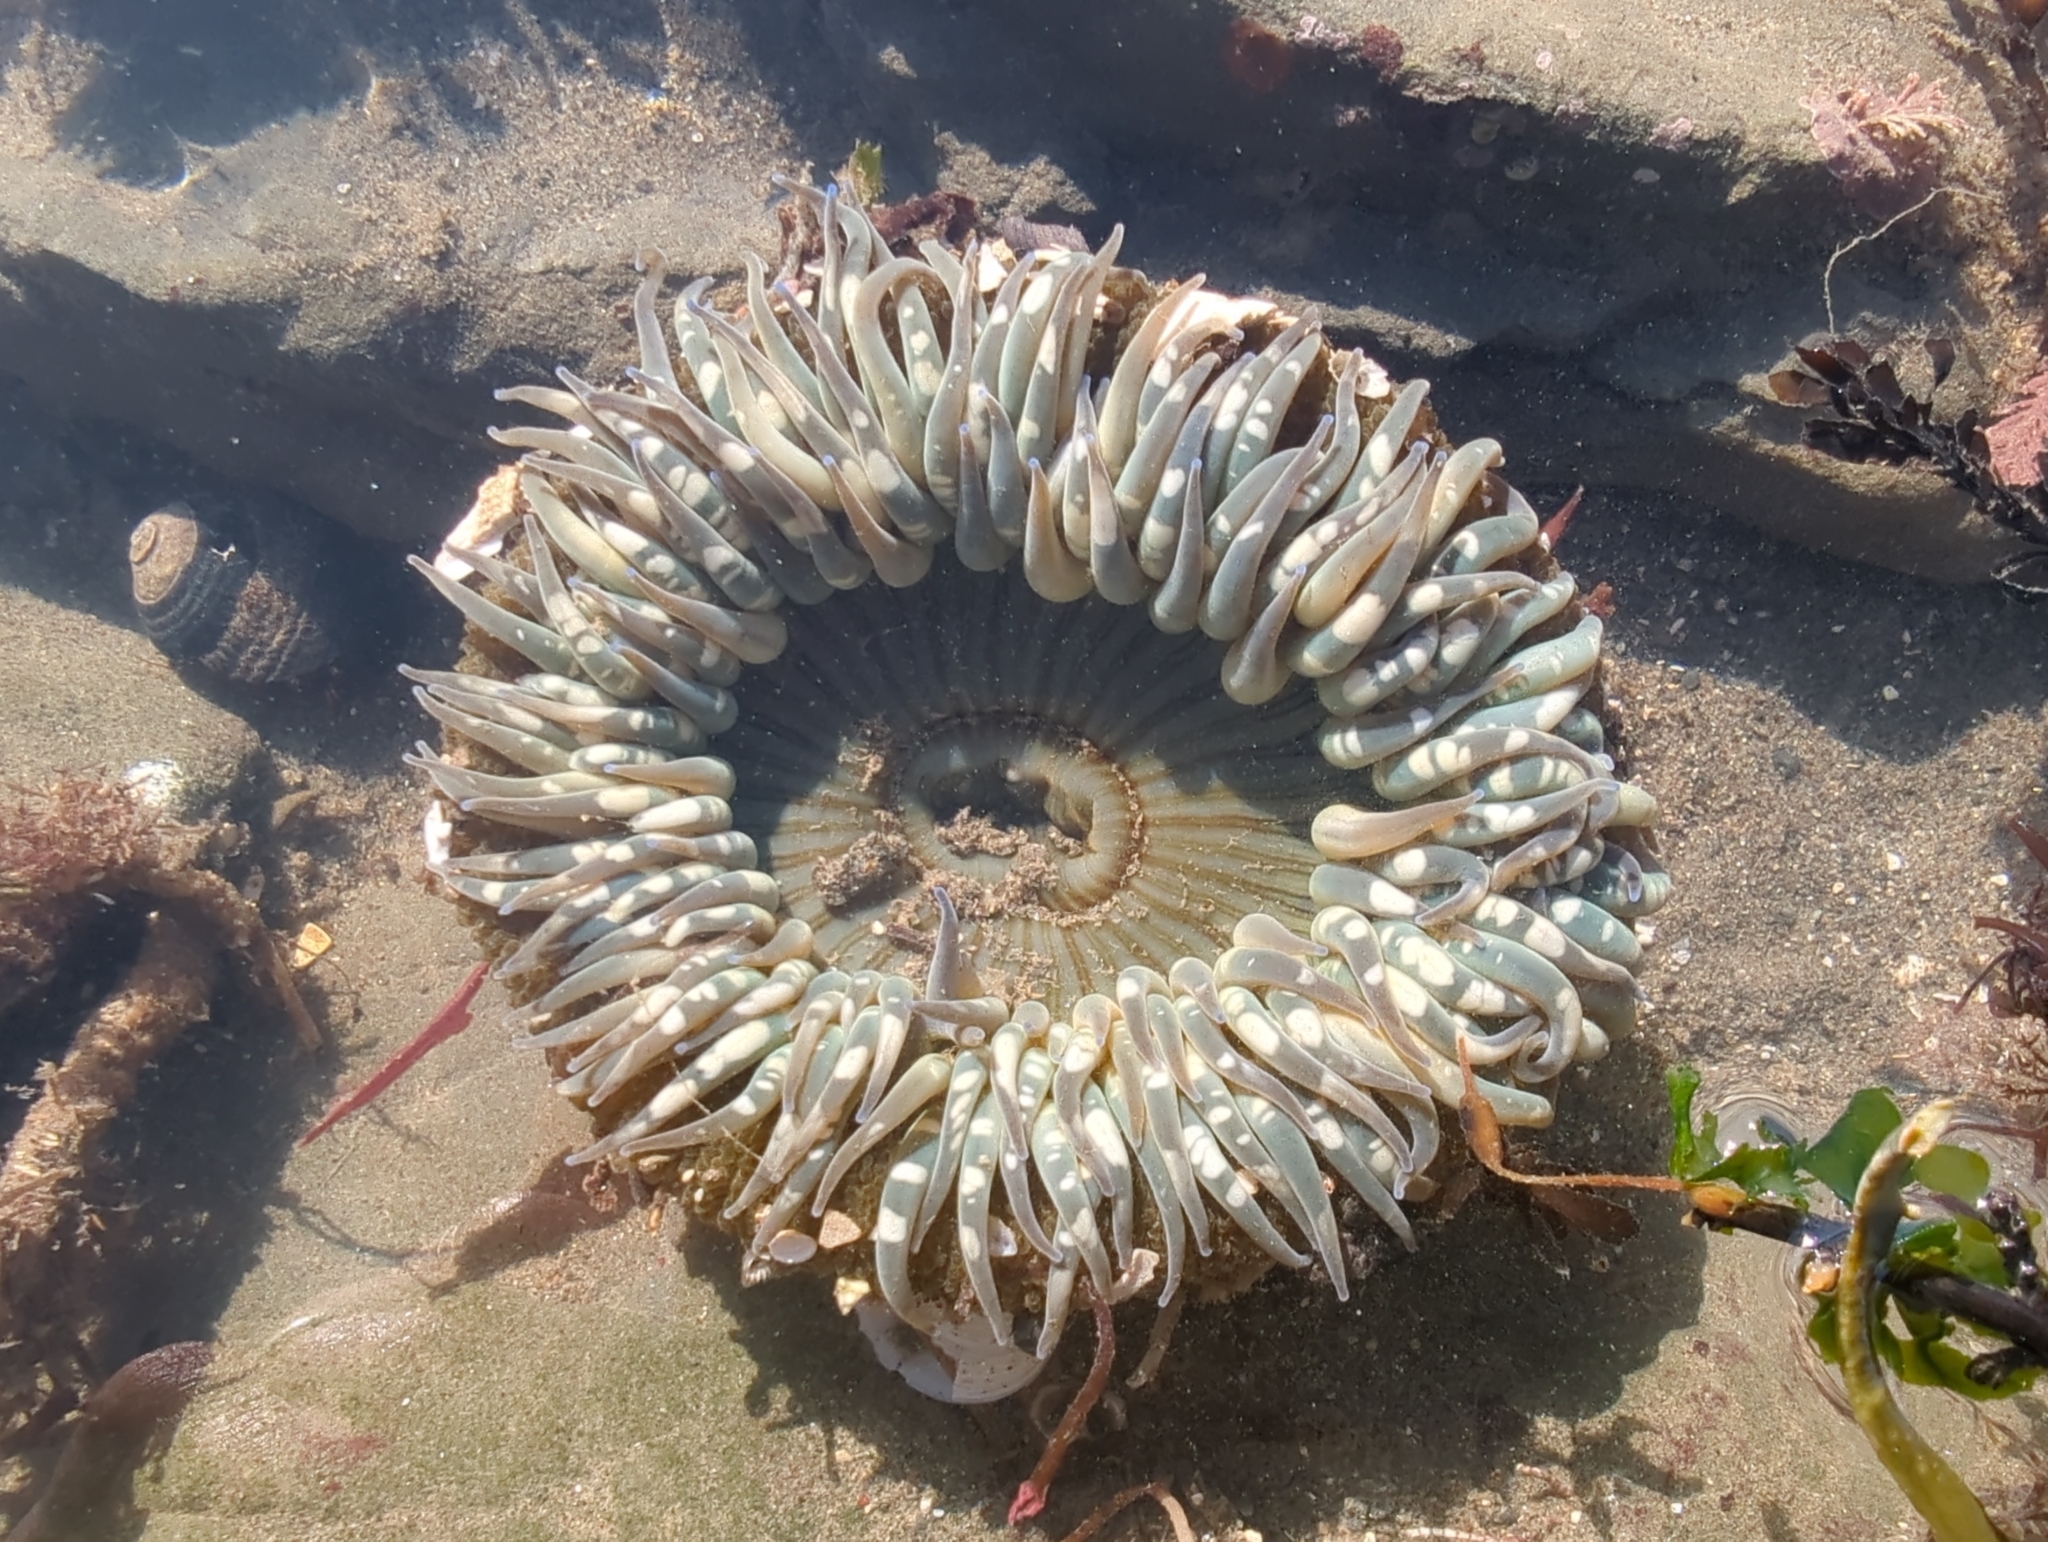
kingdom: Animalia
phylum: Cnidaria
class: Anthozoa
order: Actiniaria
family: Actiniidae
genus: Anthopleura
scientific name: Anthopleura sola
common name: Sun anemone
